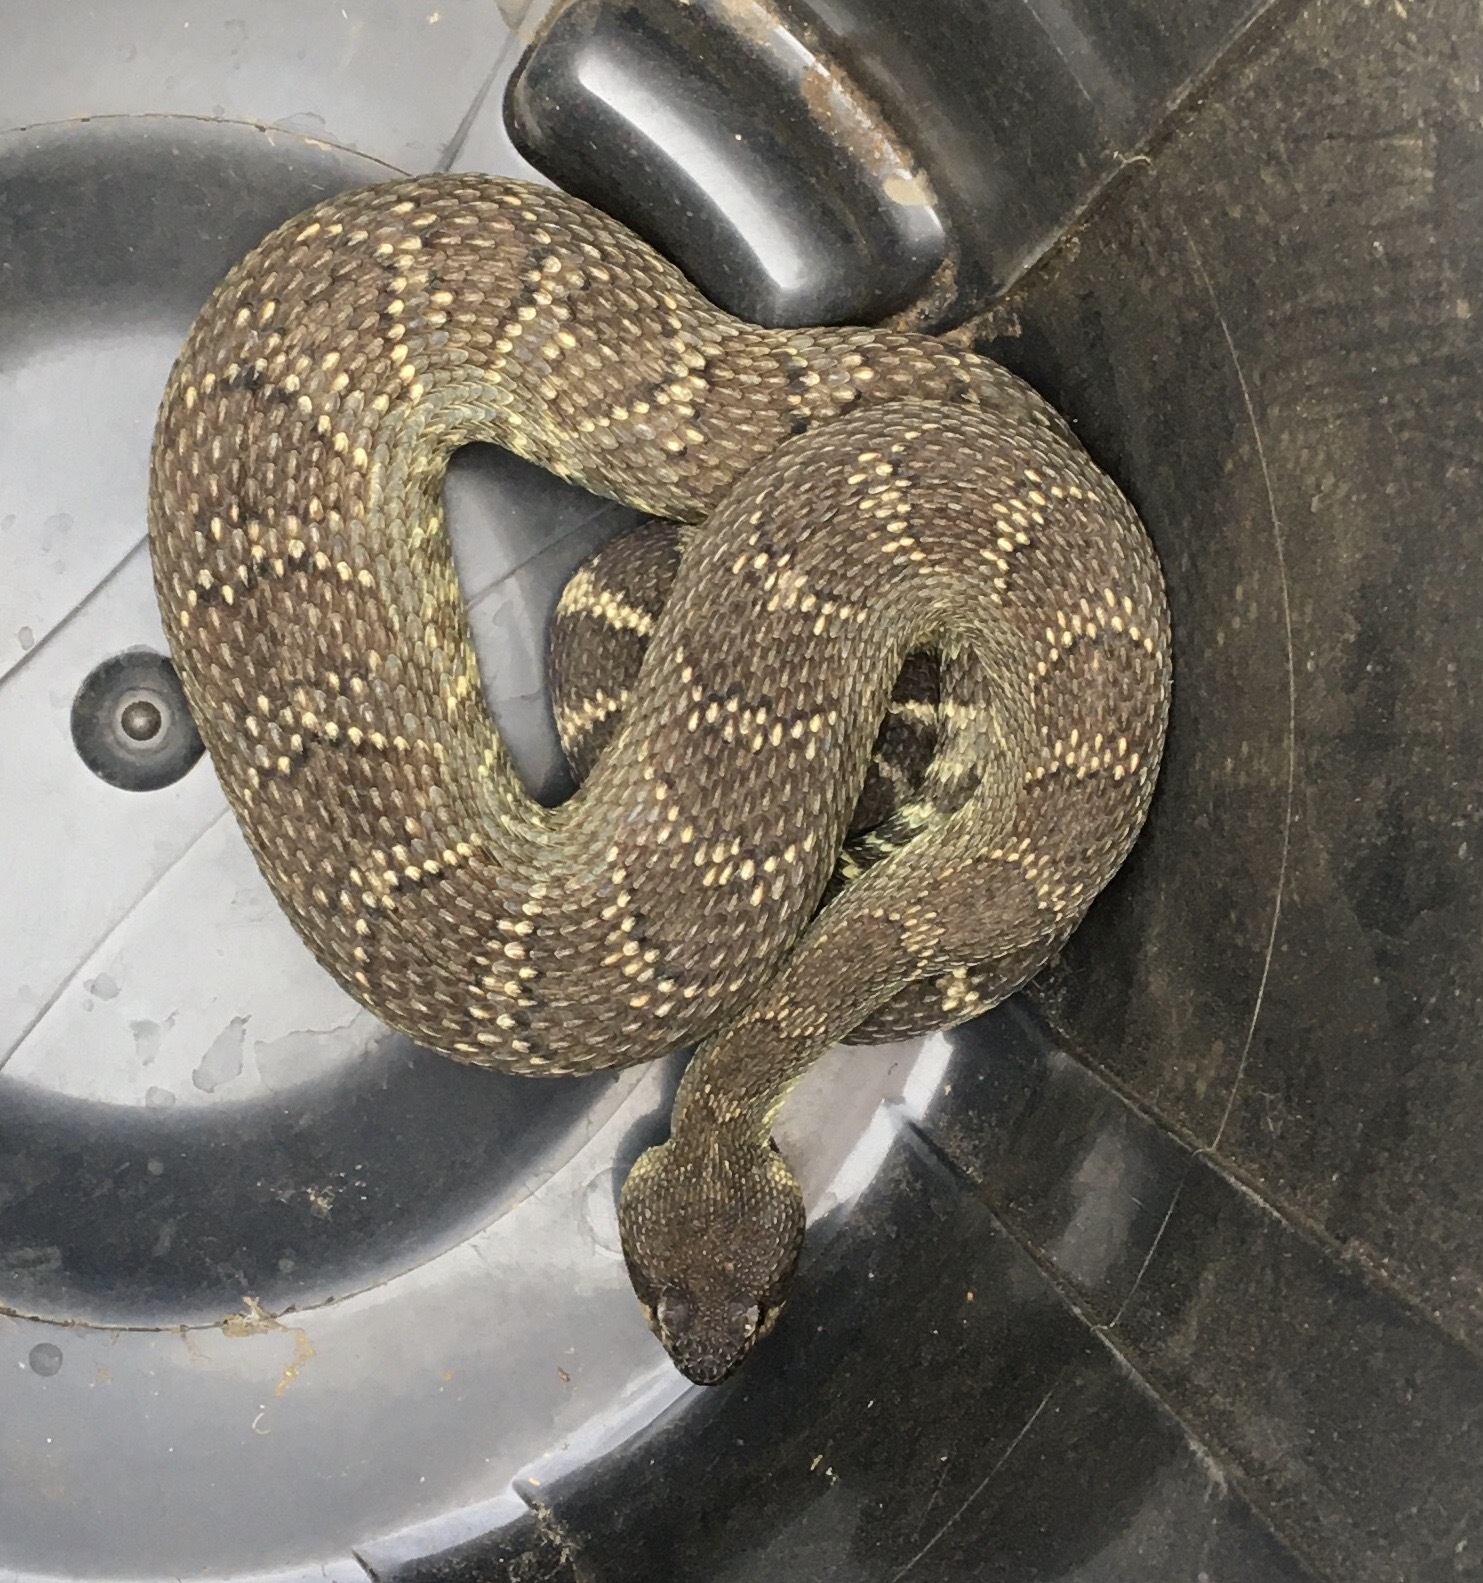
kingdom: Animalia
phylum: Chordata
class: Squamata
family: Viperidae
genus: Crotalus
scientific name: Crotalus oreganus
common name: Abyssus
